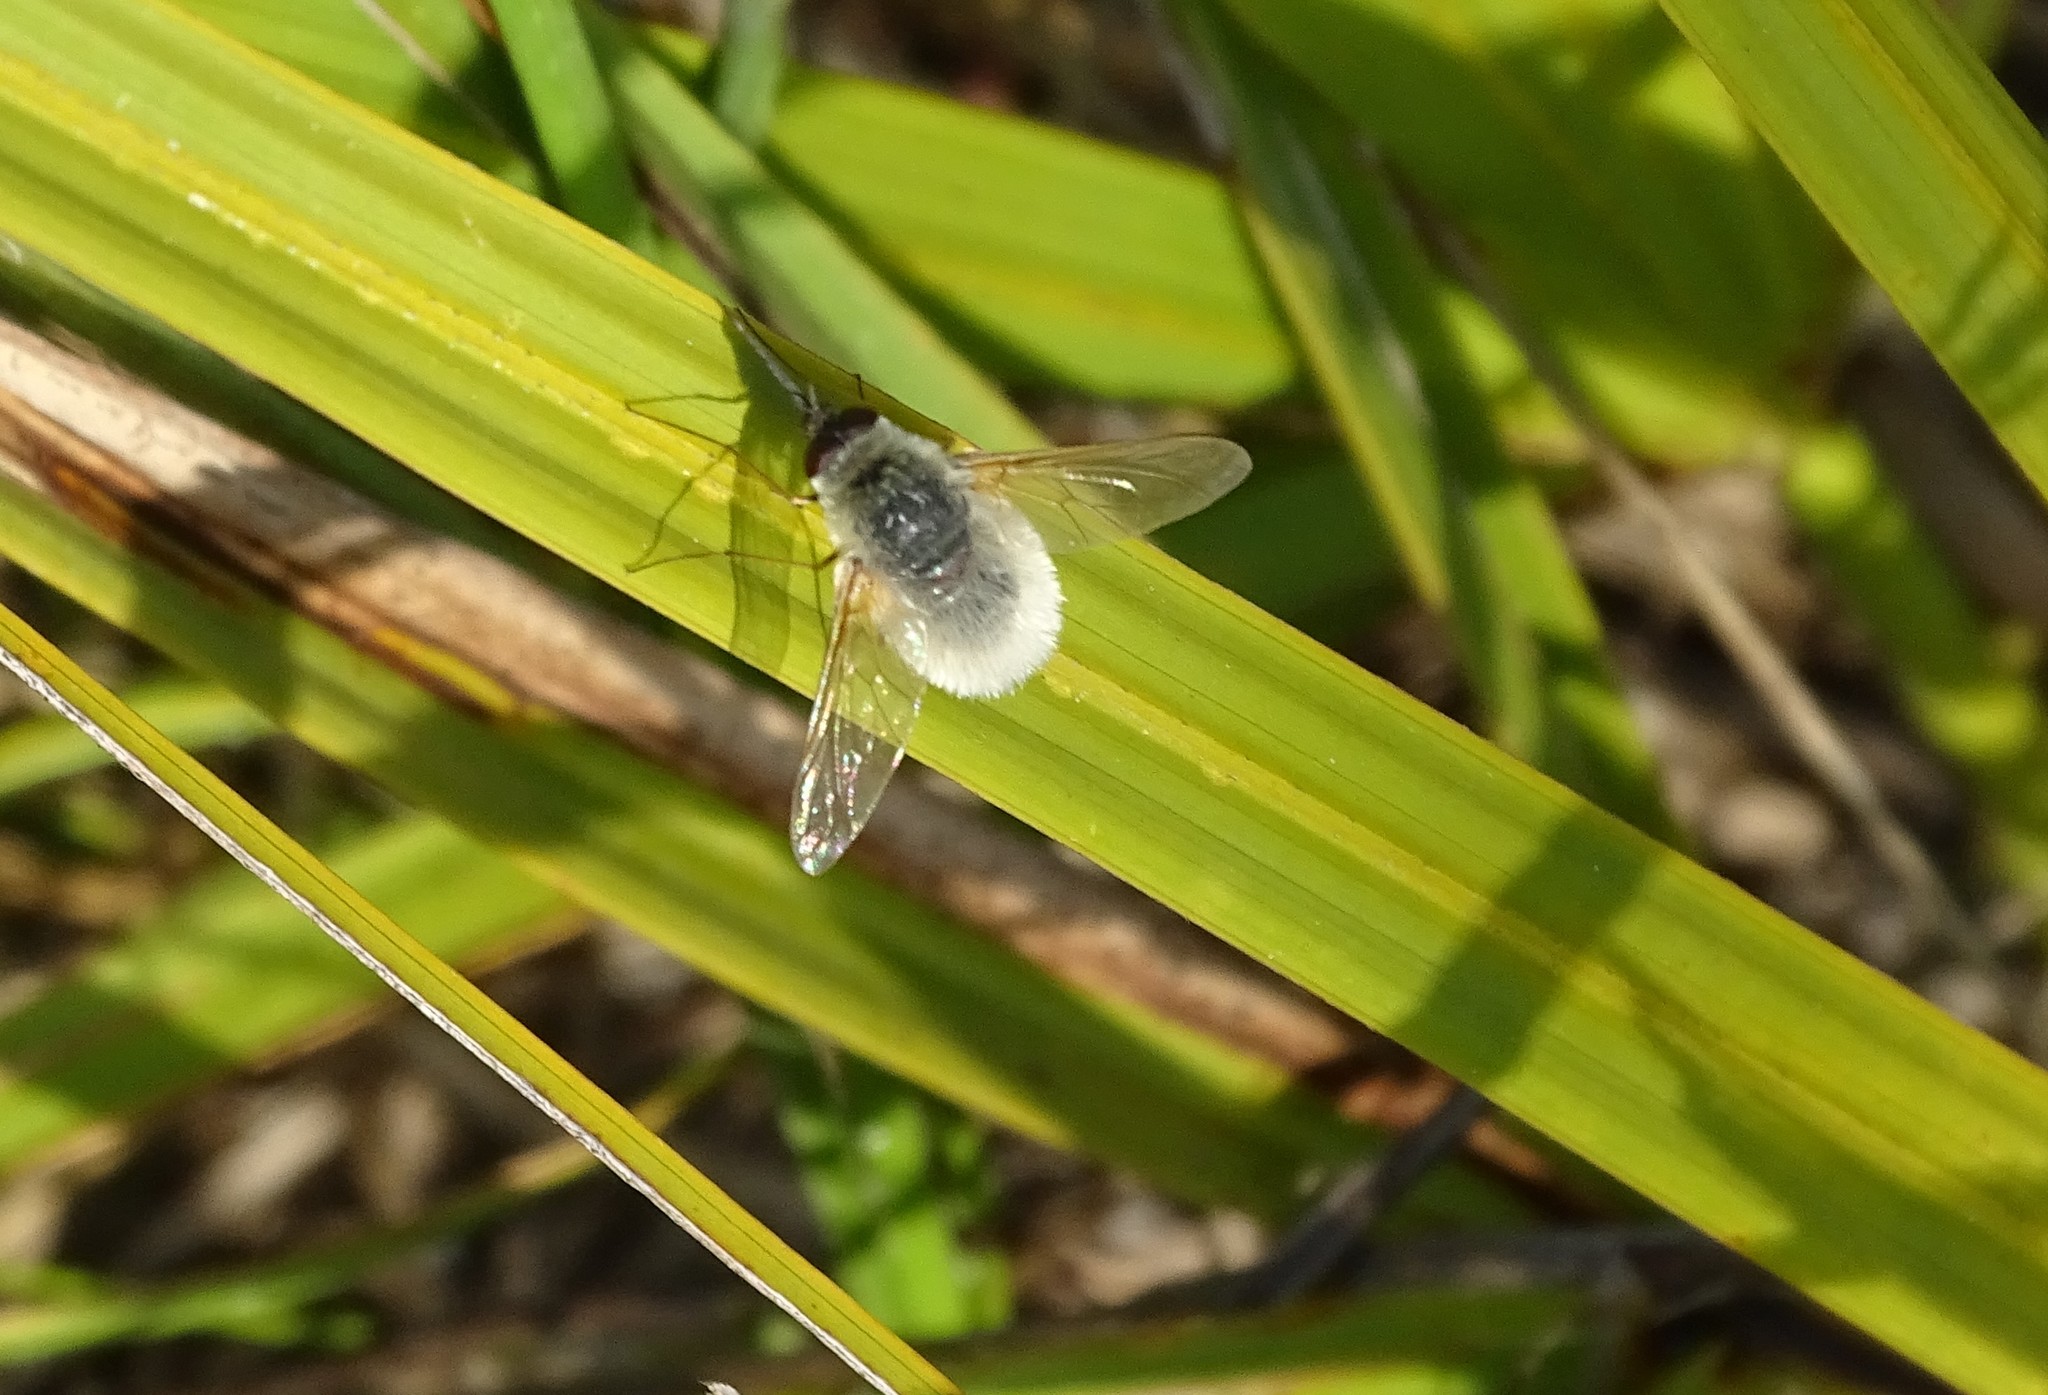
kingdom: Animalia
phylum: Arthropoda
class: Insecta
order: Diptera
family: Bombyliidae
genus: Systoechus
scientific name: Systoechus candidulus
